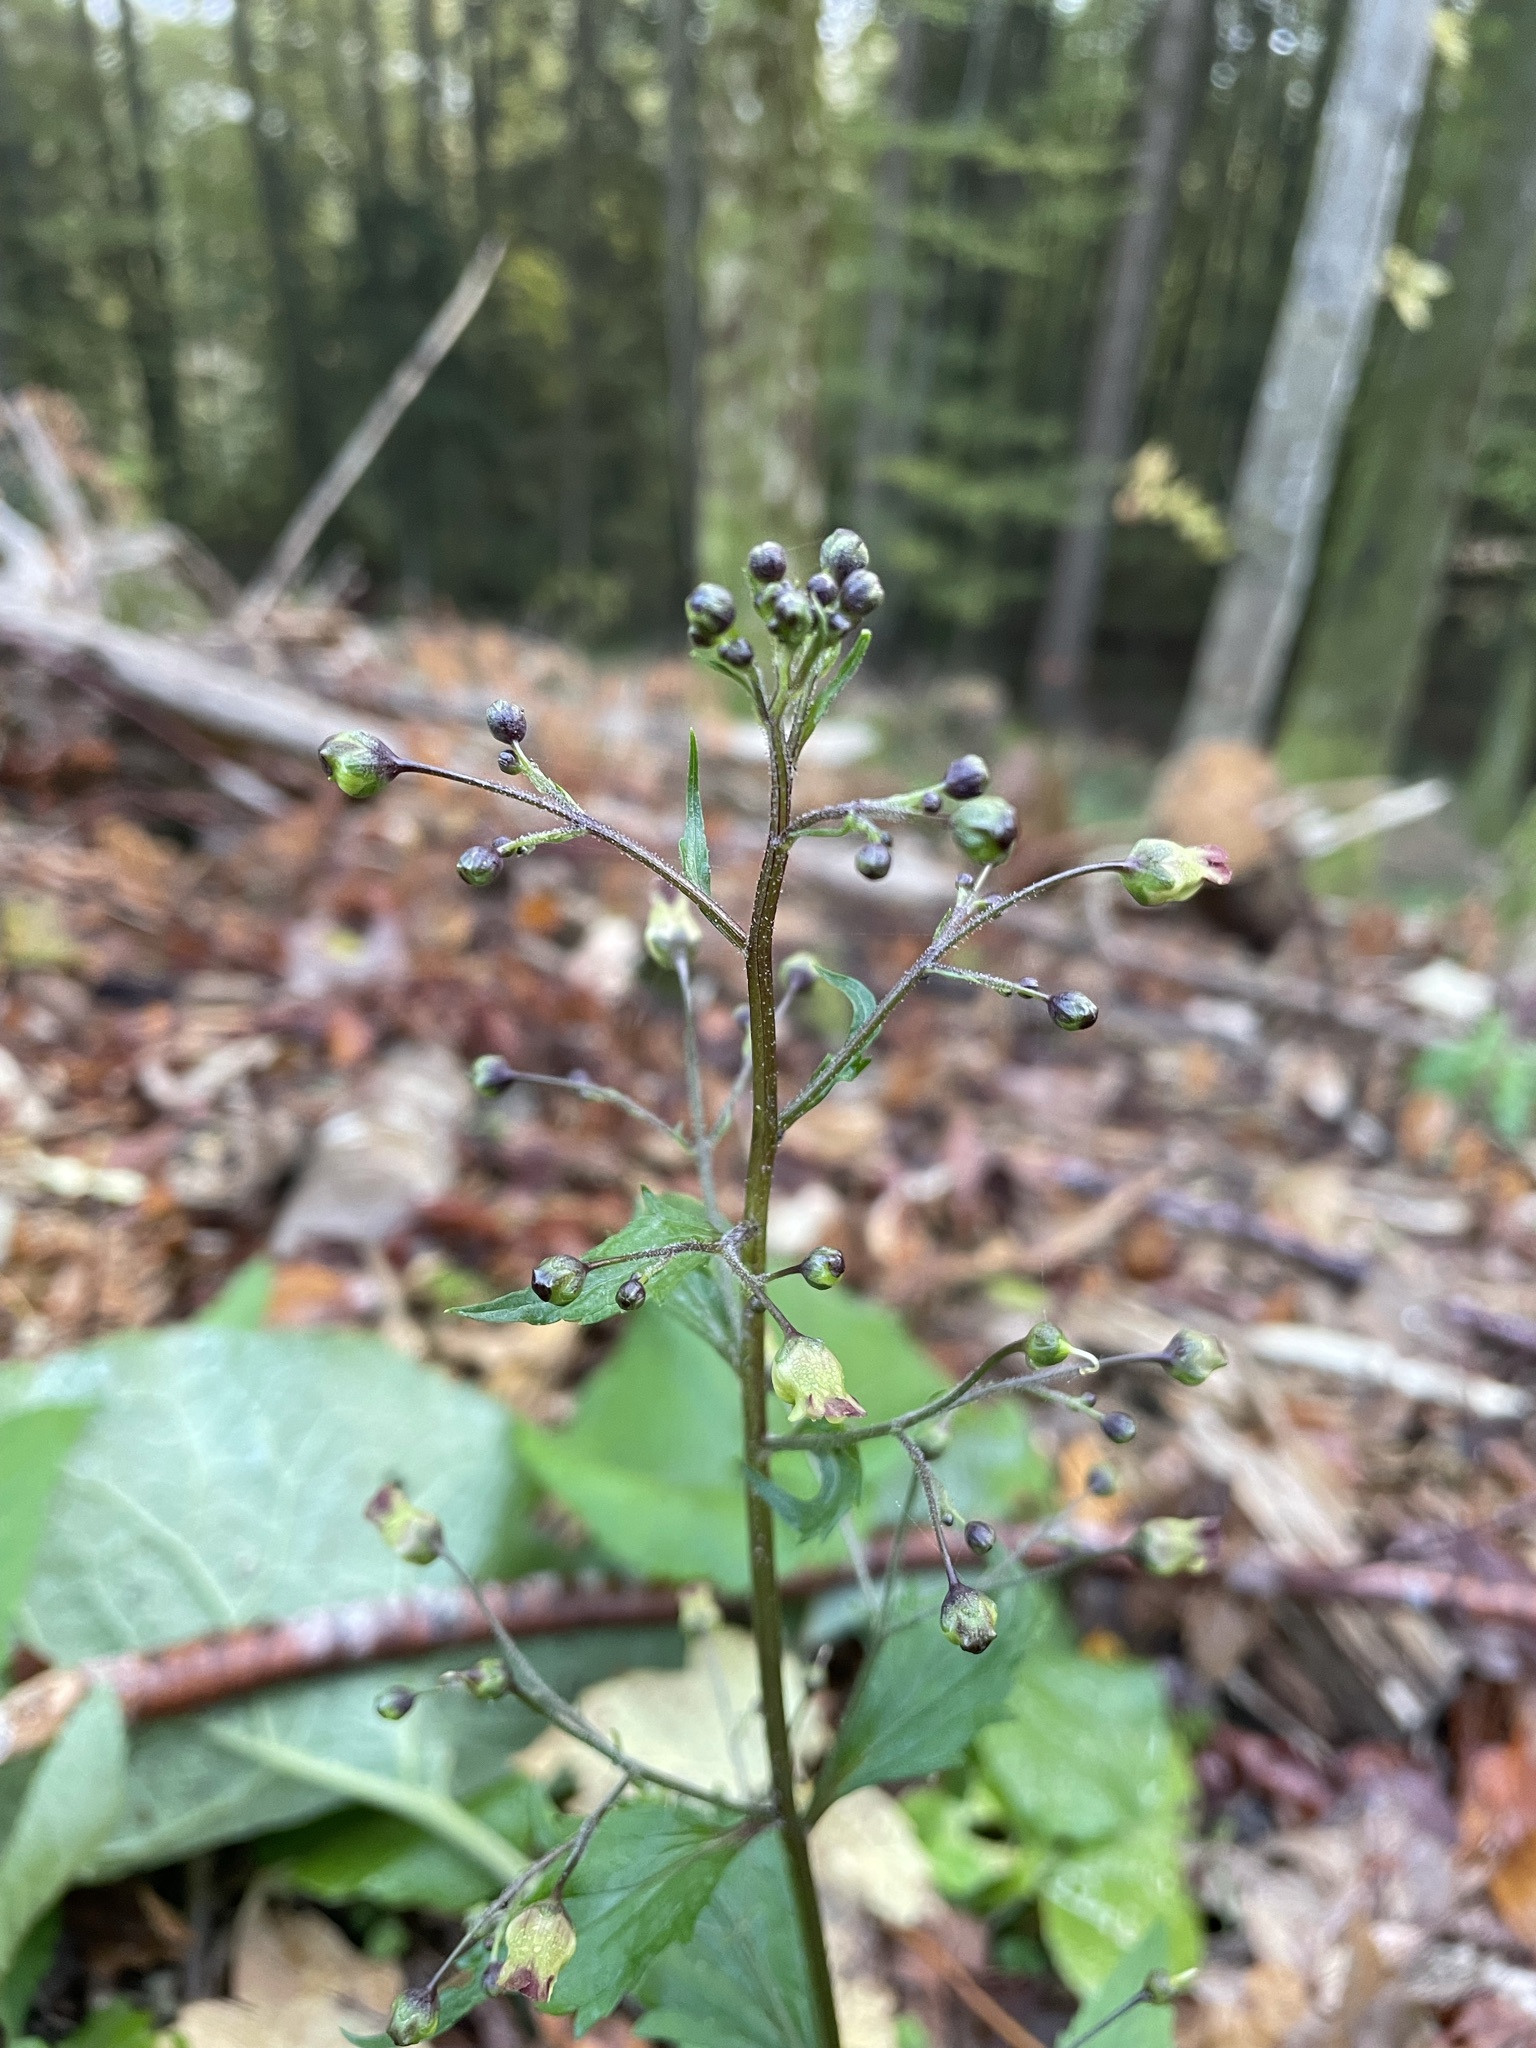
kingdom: Plantae
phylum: Tracheophyta
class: Magnoliopsida
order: Lamiales
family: Scrophulariaceae
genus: Scrophularia
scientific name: Scrophularia nodosa
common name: Common figwort
